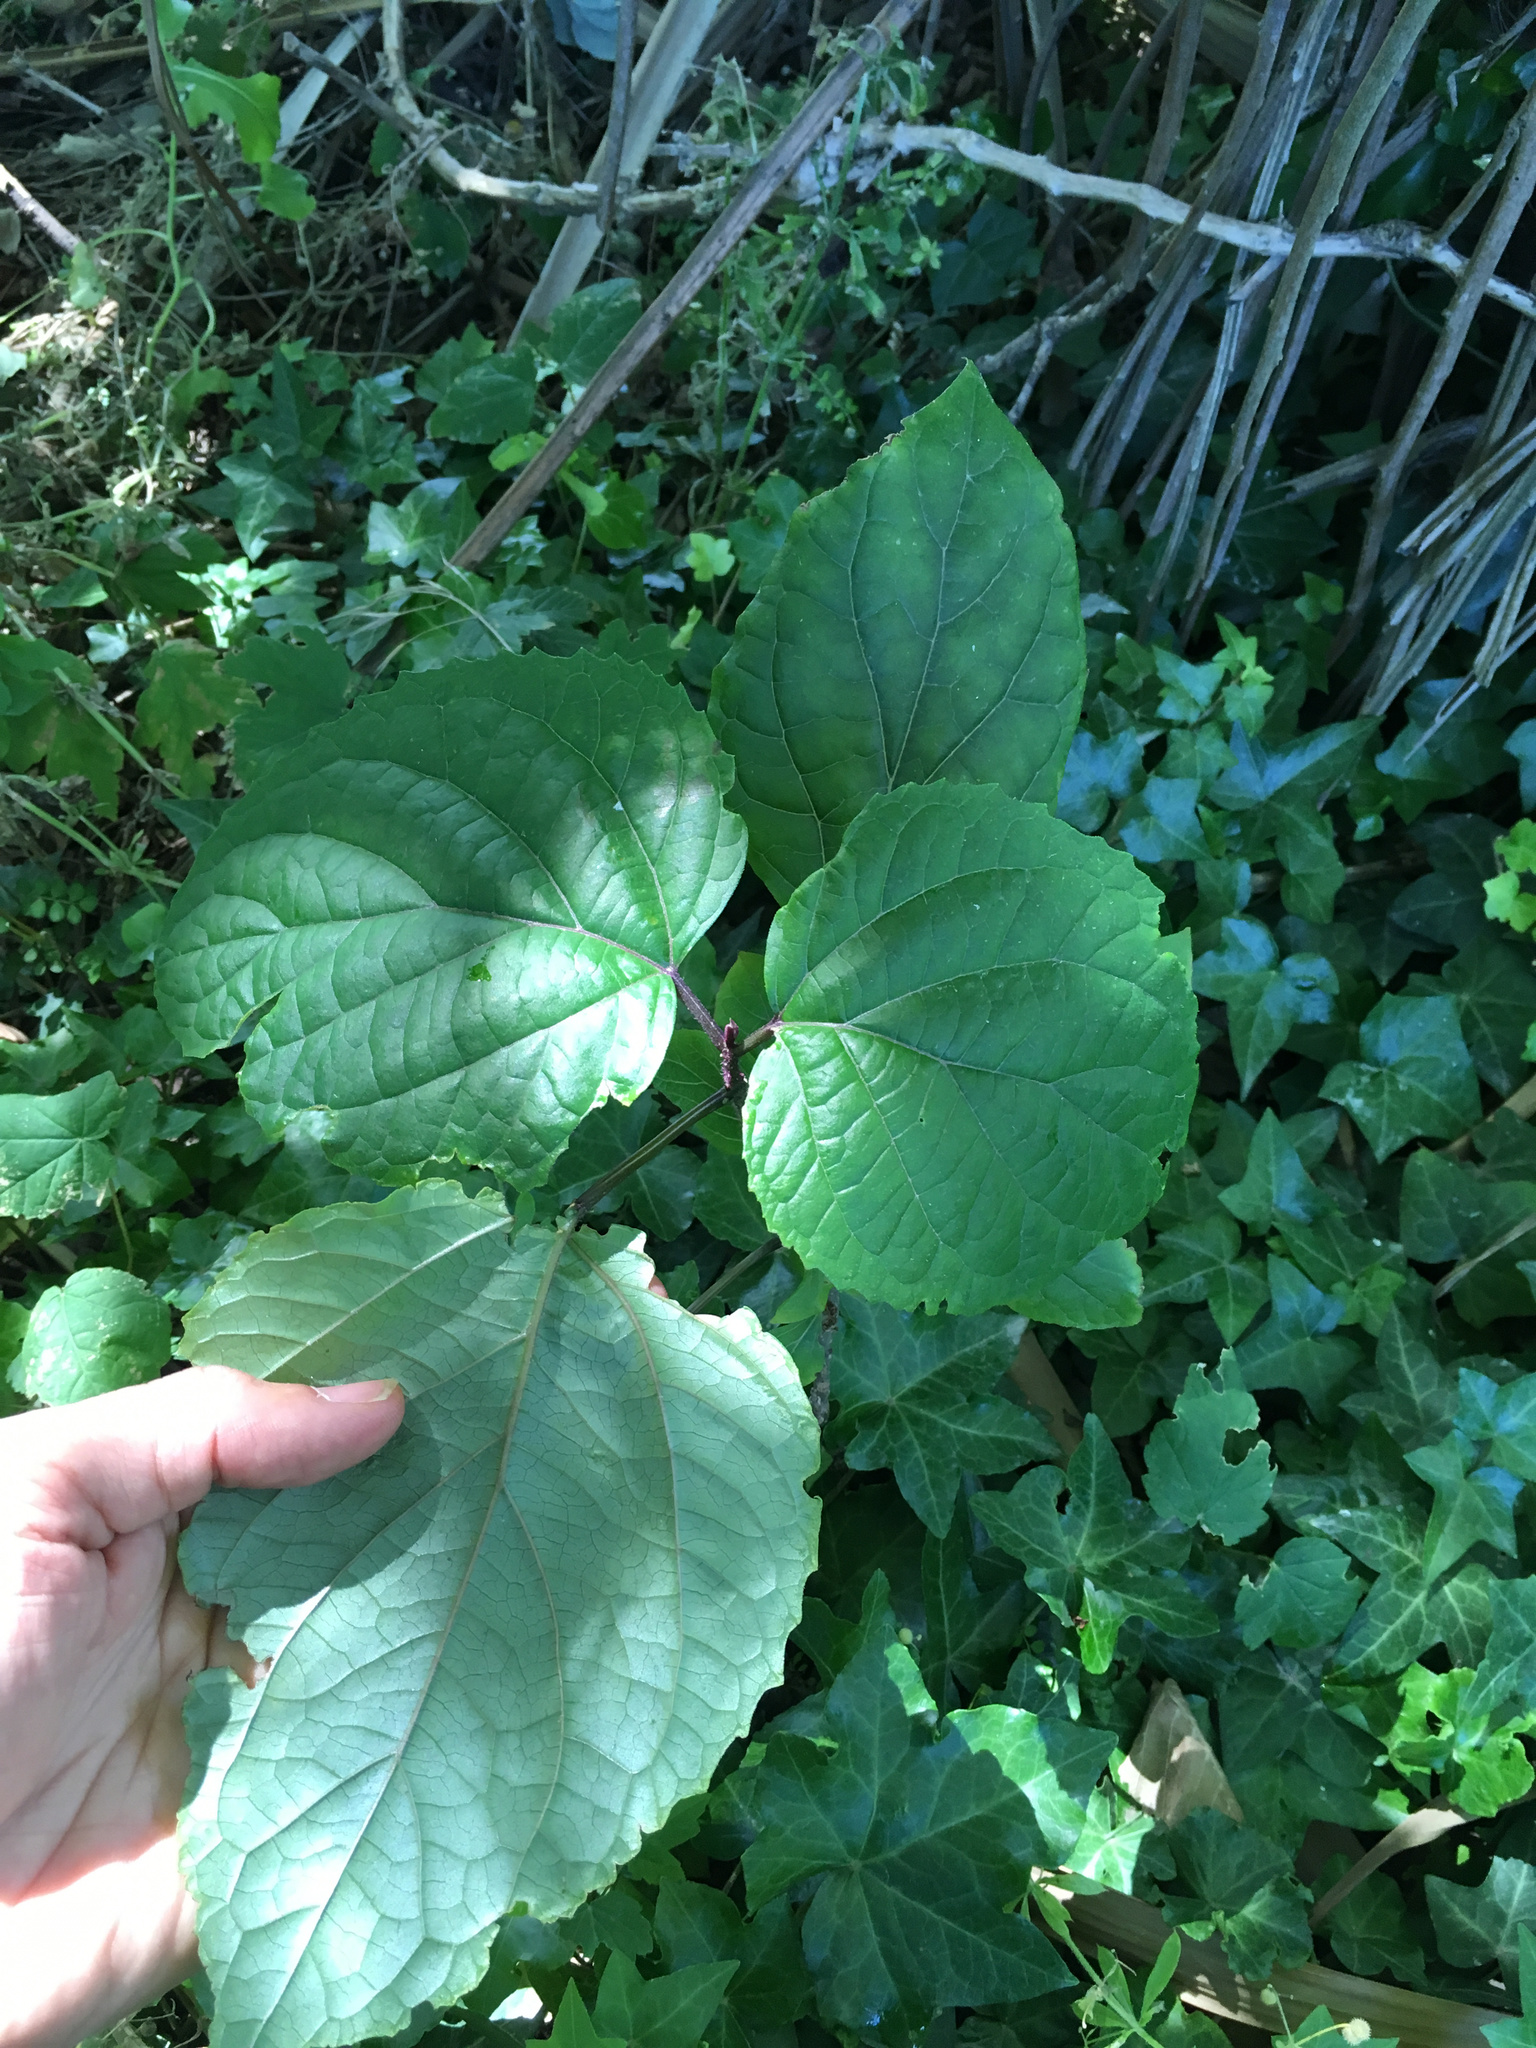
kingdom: Plantae
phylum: Tracheophyta
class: Magnoliopsida
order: Lamiales
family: Lamiaceae
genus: Clerodendrum
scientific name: Clerodendrum bungei
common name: Rose glorybower
